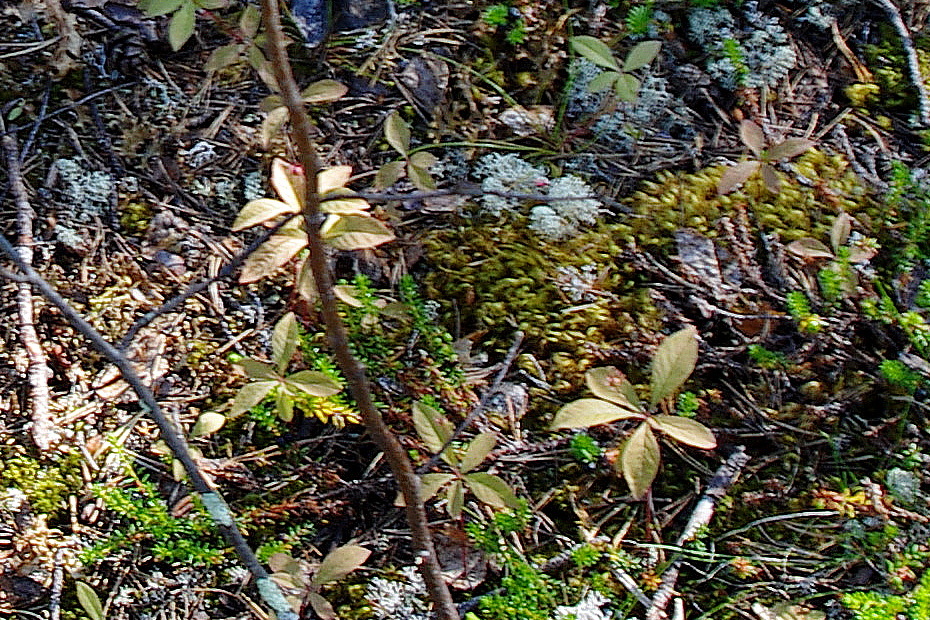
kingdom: Plantae
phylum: Tracheophyta
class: Magnoliopsida
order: Ericales
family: Primulaceae
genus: Lysimachia
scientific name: Lysimachia europaea
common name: Arctic starflower
